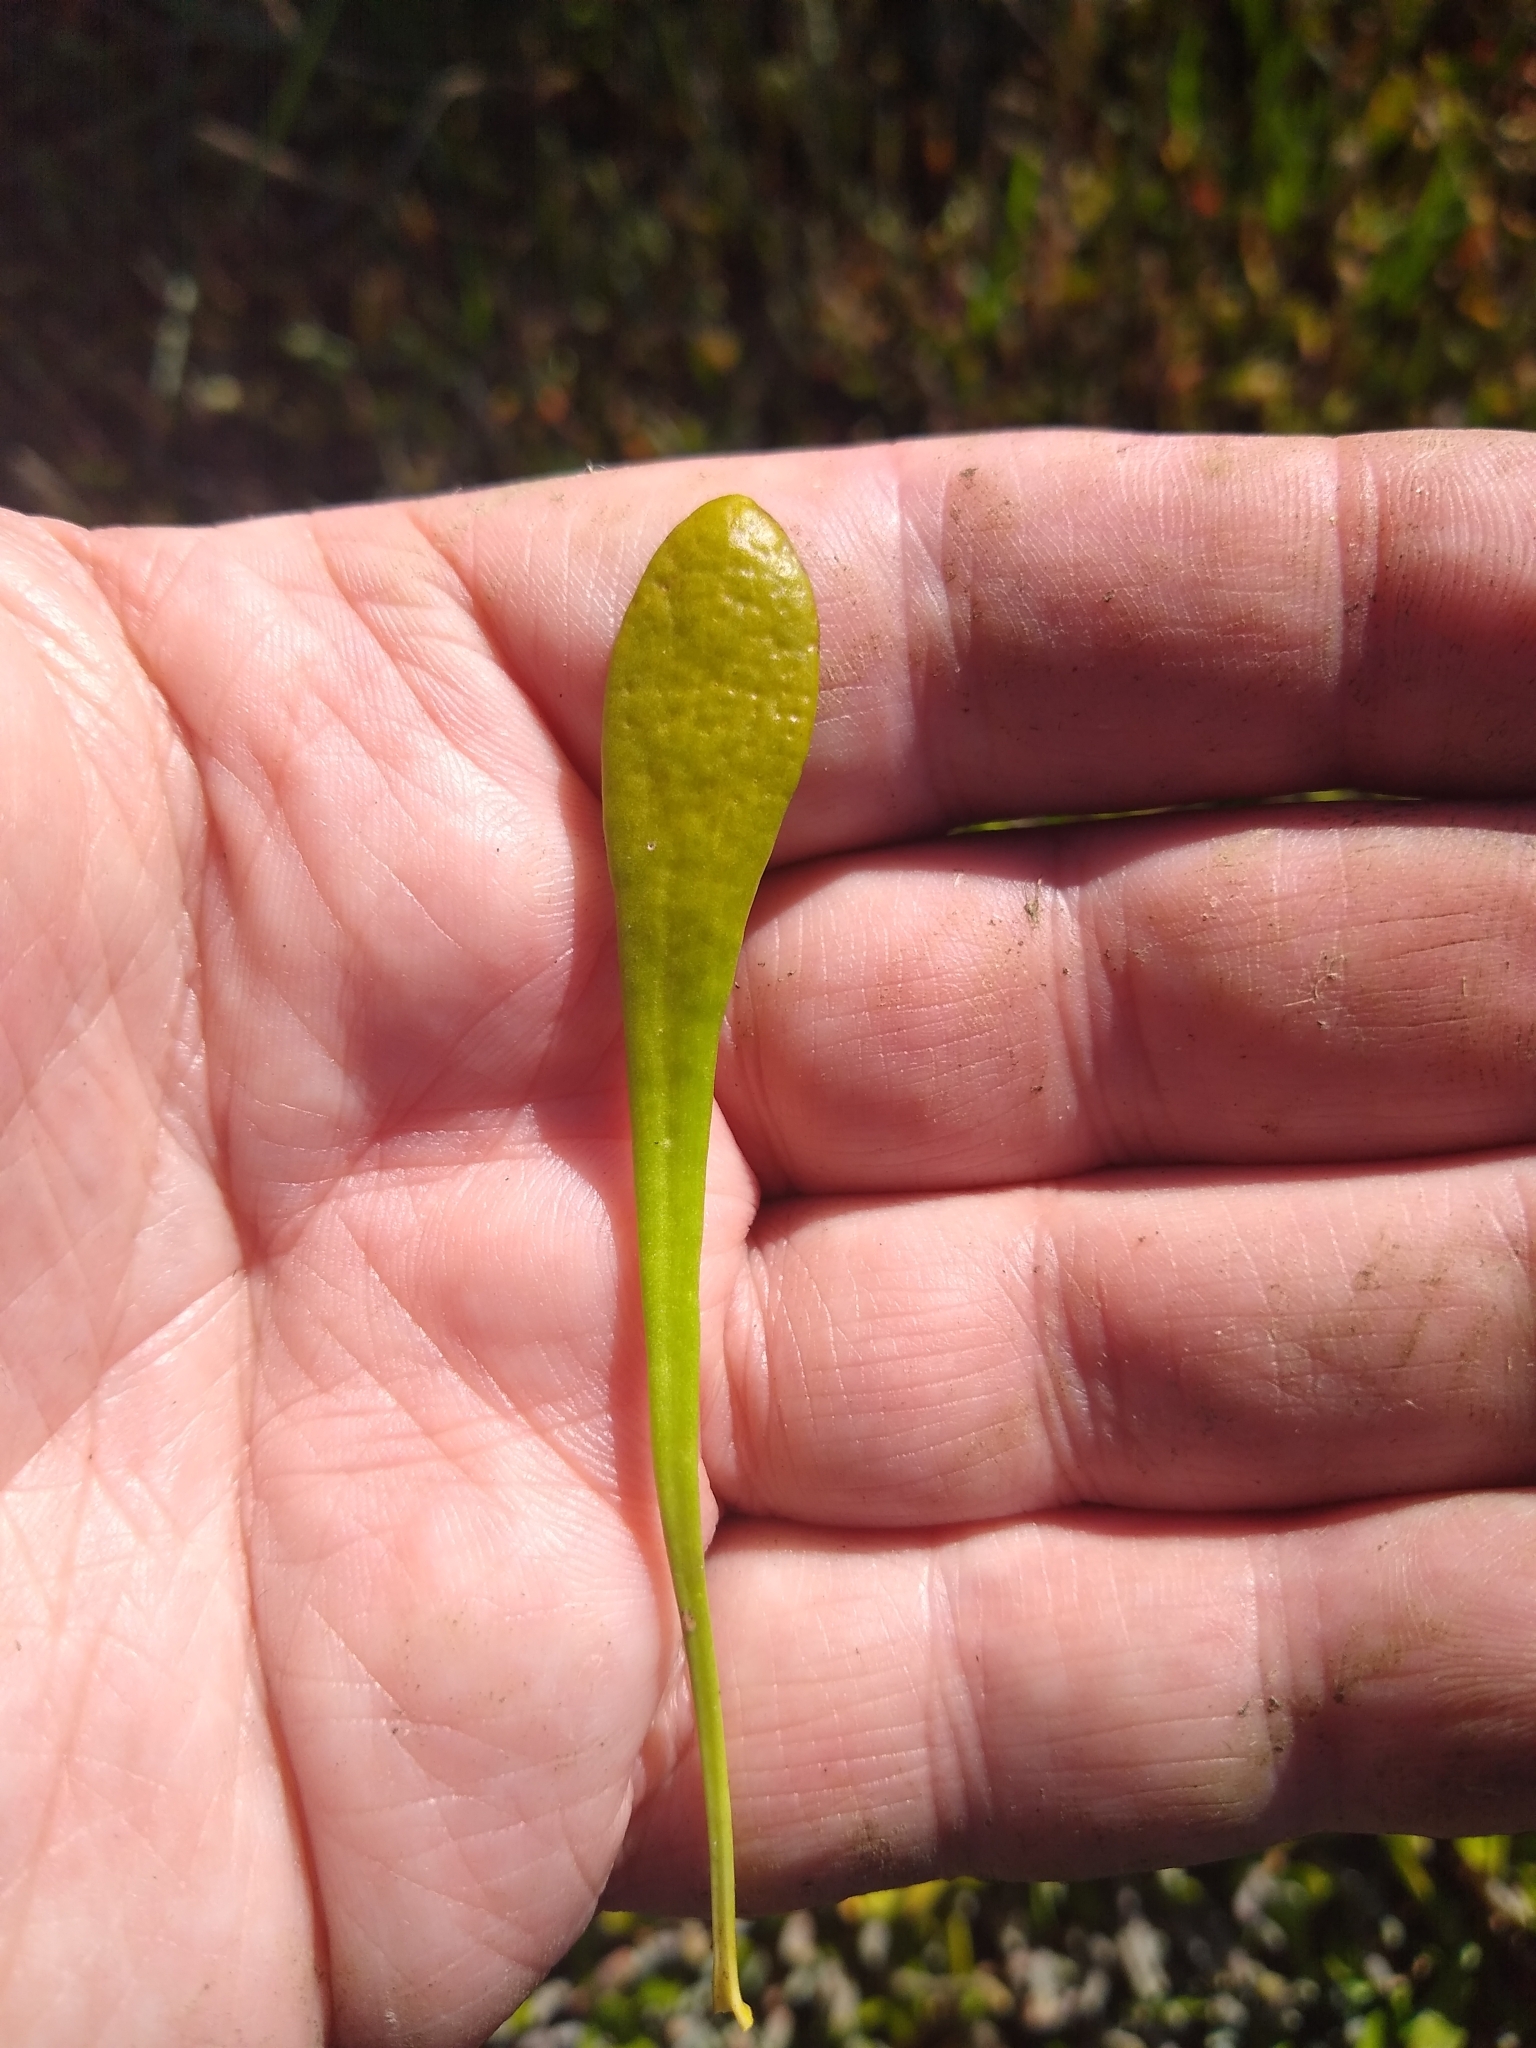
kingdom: Plantae
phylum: Tracheophyta
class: Magnoliopsida
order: Asterales
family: Goodeniaceae
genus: Goodenia
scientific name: Goodenia radicans
